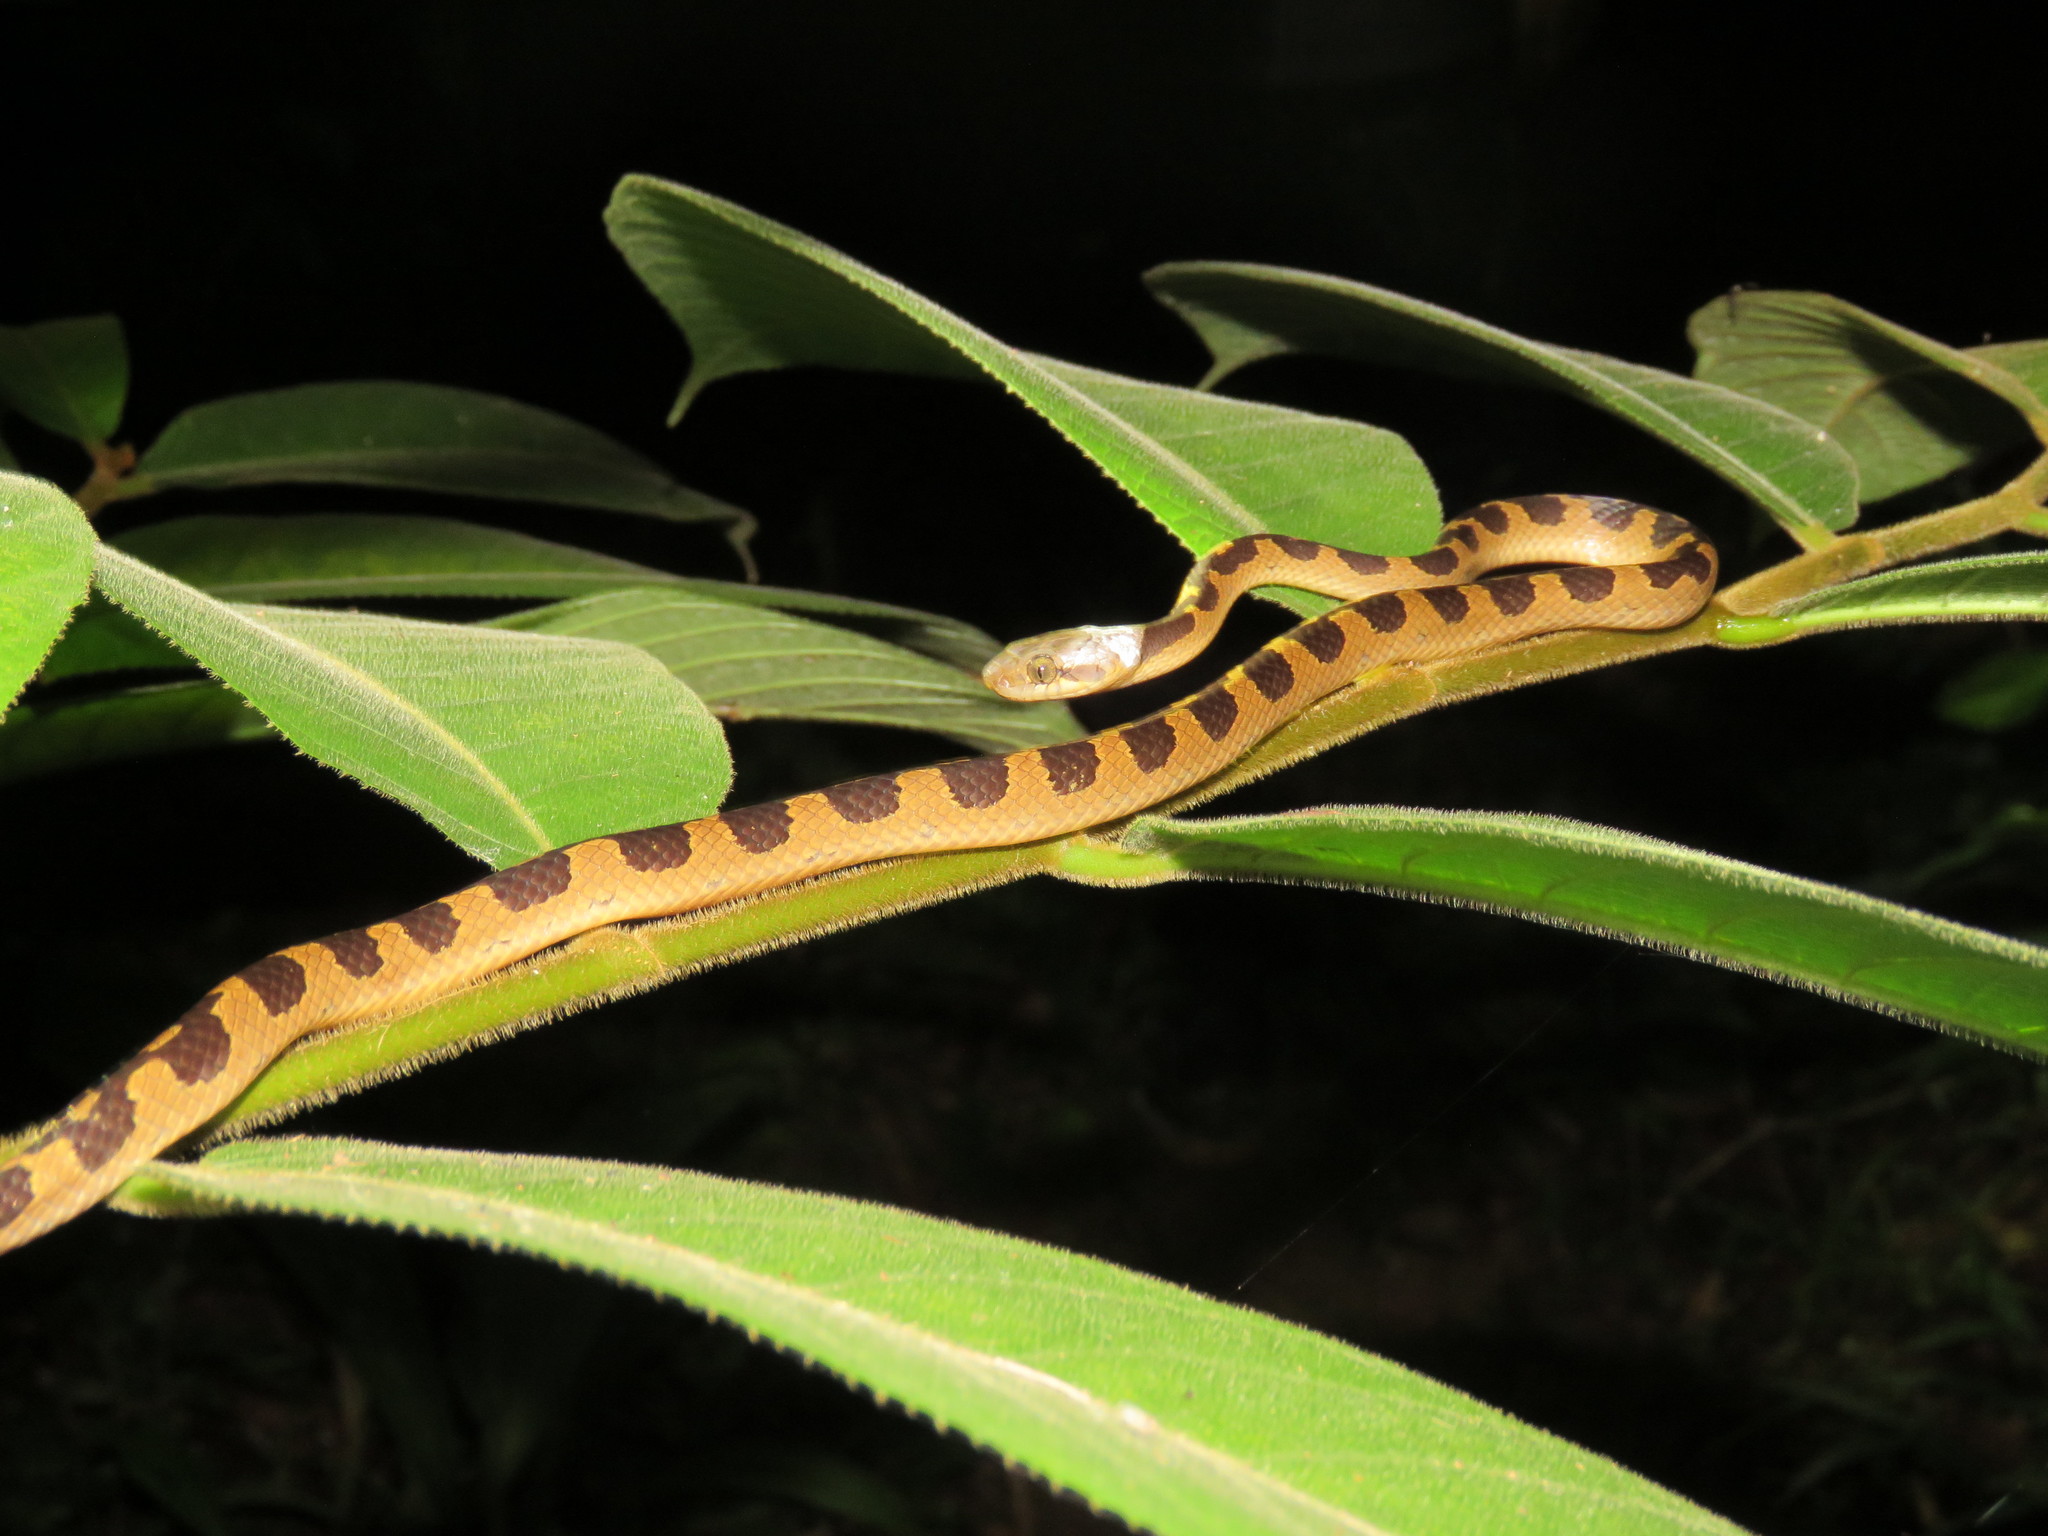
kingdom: Animalia
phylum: Chordata
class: Squamata
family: Colubridae
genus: Leptodeira
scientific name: Leptodeira annulata
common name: Banded cat-eyed snake
